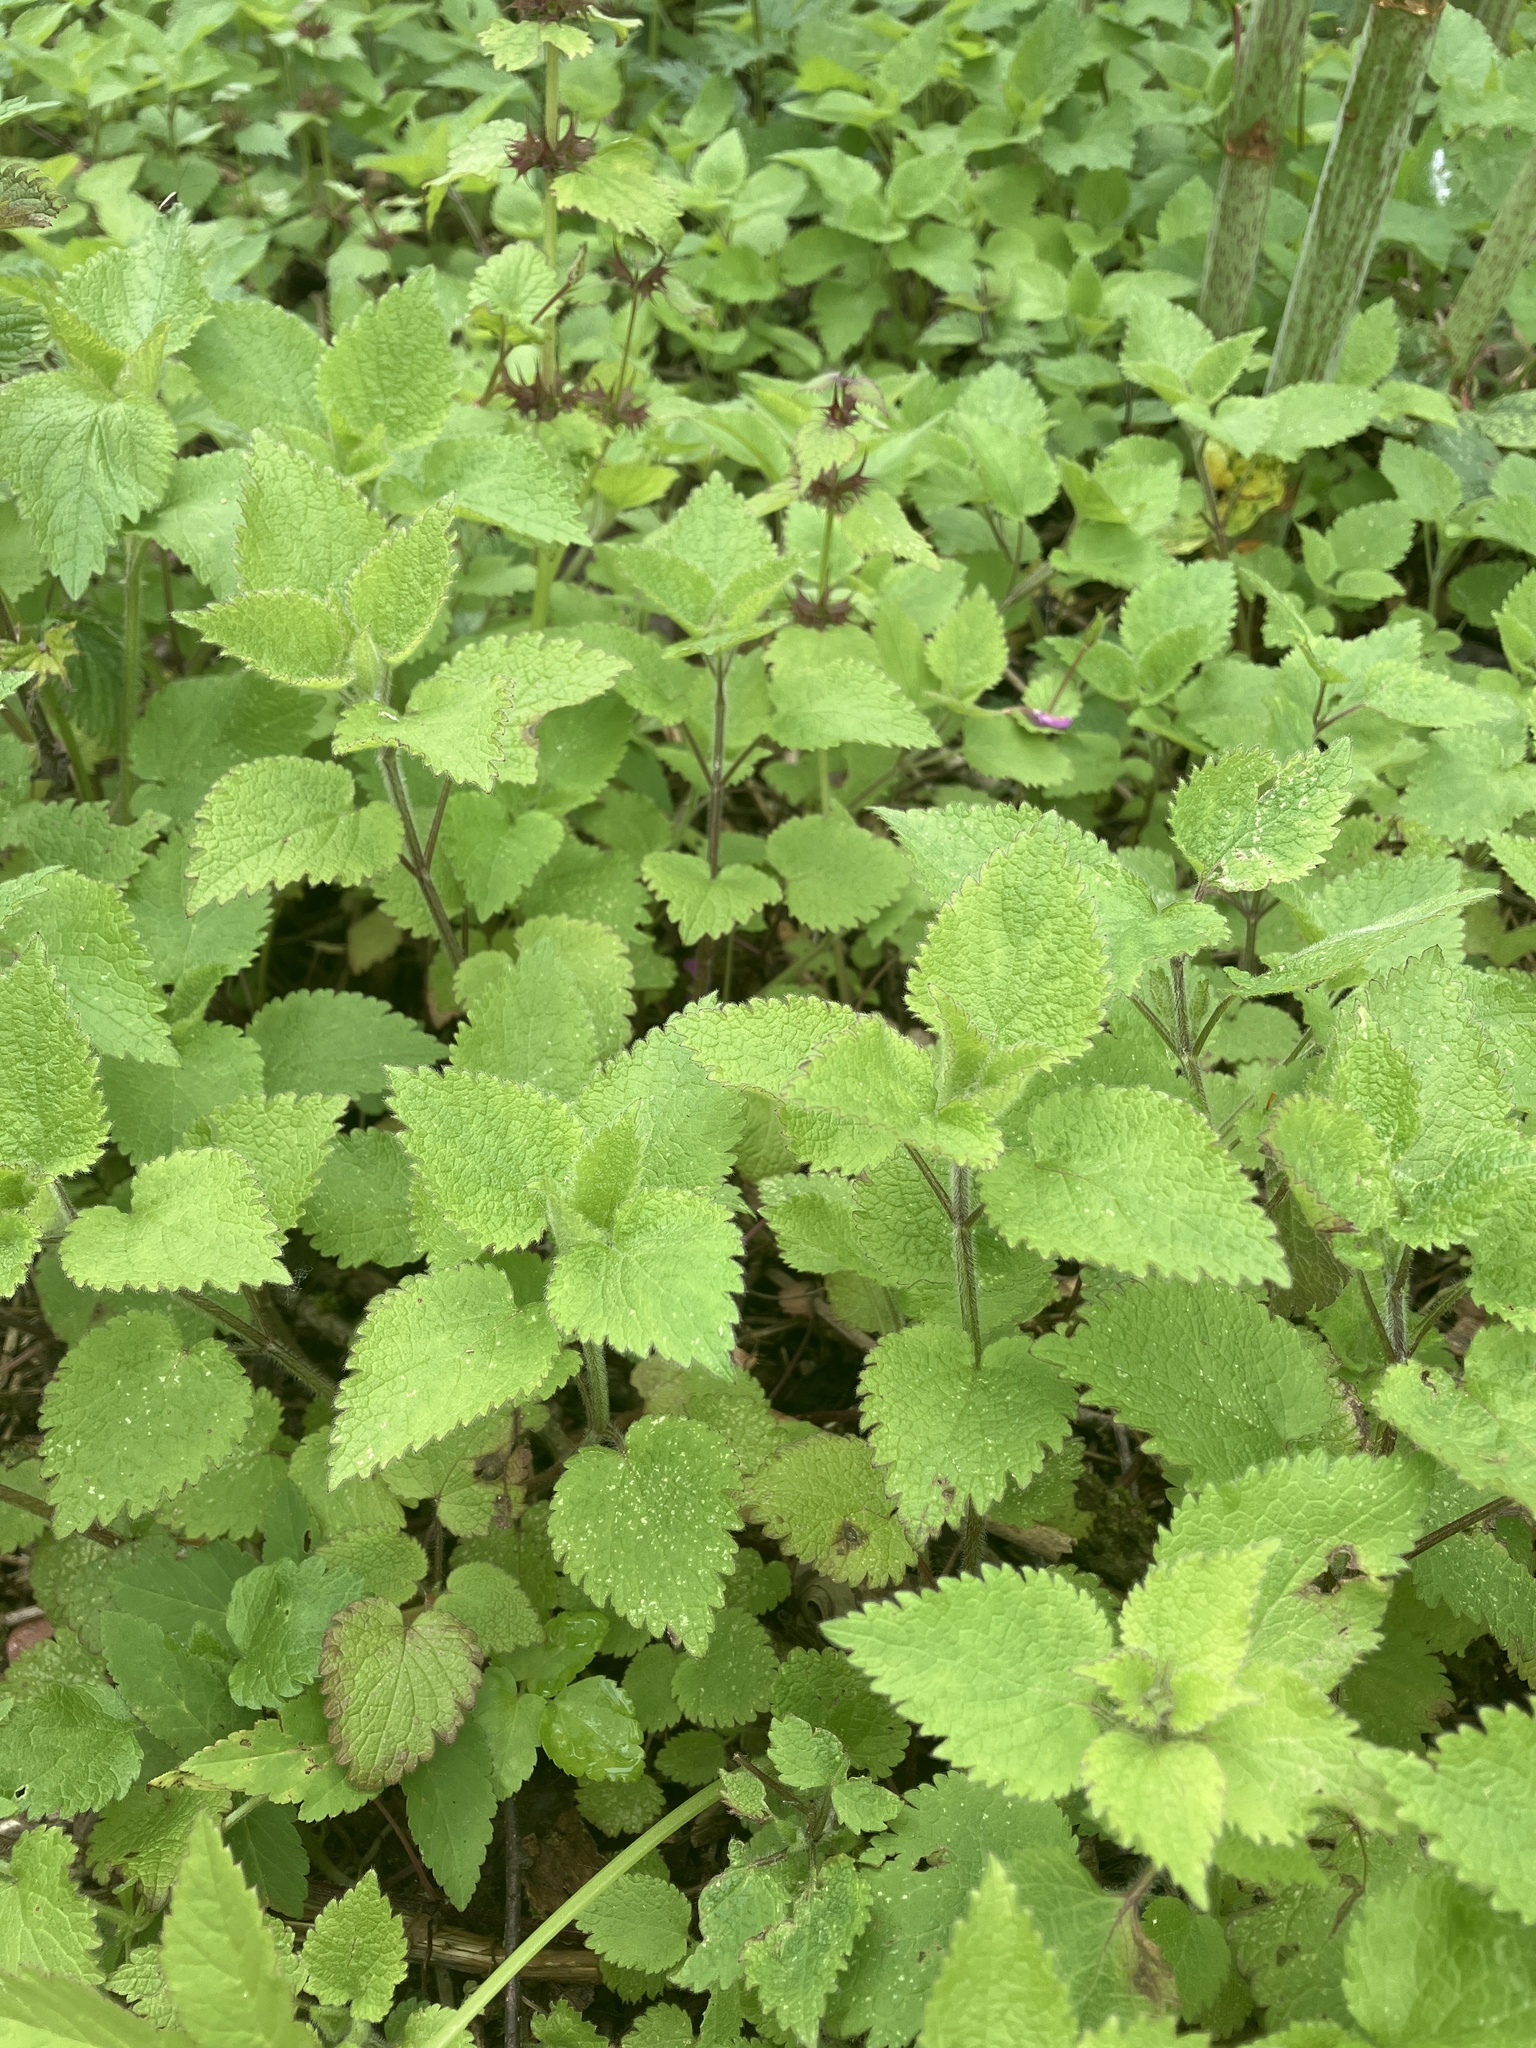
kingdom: Plantae
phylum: Tracheophyta
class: Magnoliopsida
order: Lamiales
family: Lamiaceae
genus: Lamium
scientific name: Lamium maculatum
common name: Spotted dead-nettle
